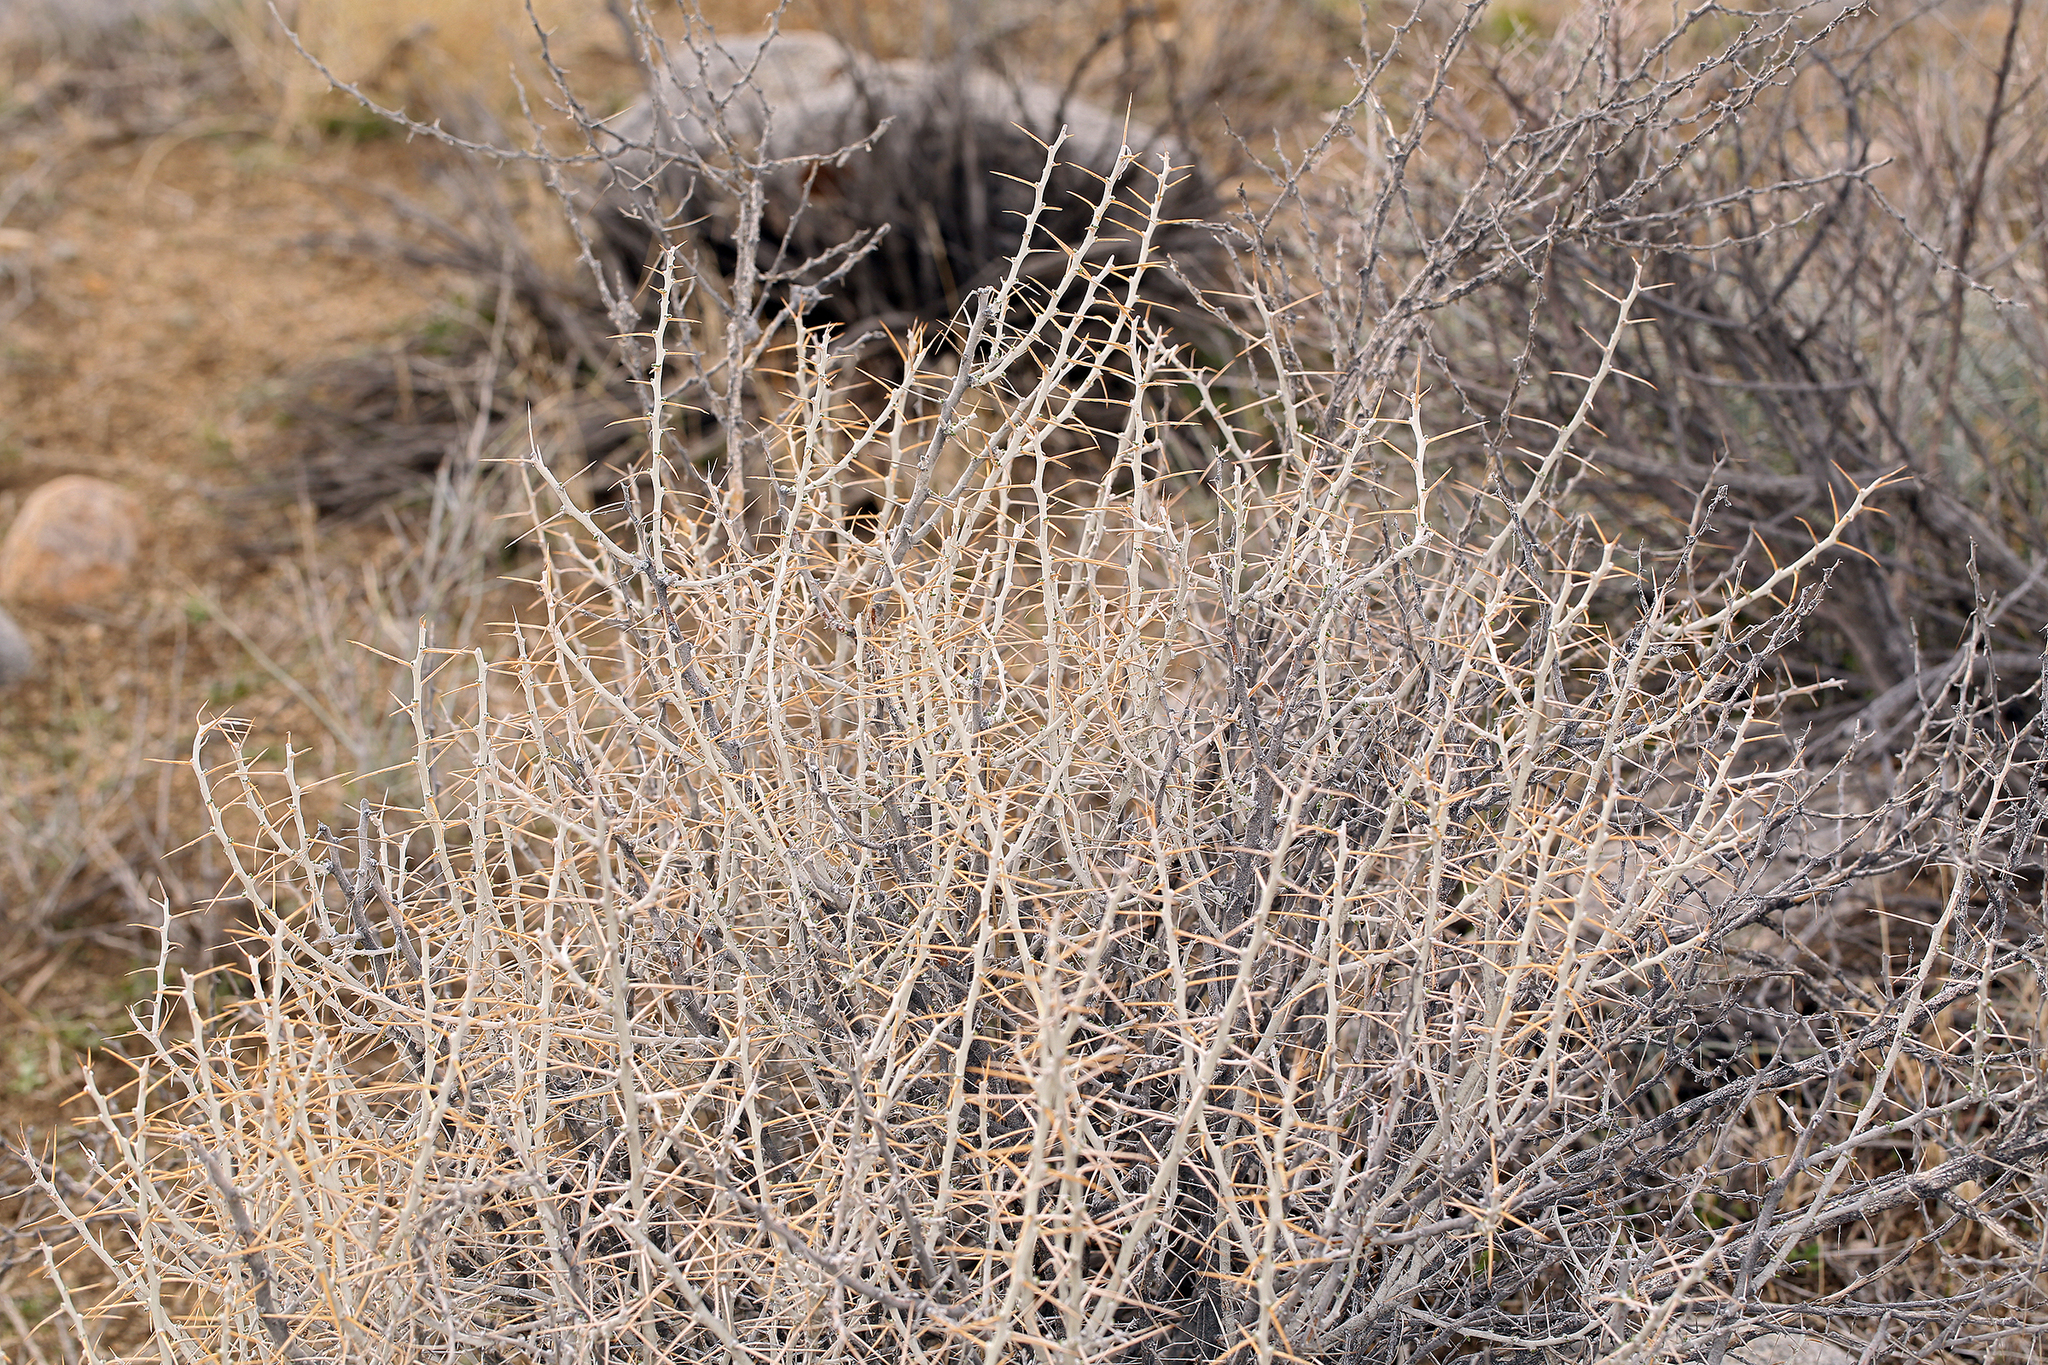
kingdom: Plantae
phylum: Tracheophyta
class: Magnoliopsida
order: Asterales
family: Asteraceae
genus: Tetradymia
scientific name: Tetradymia axillaris
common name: Long-spine horsebrush
